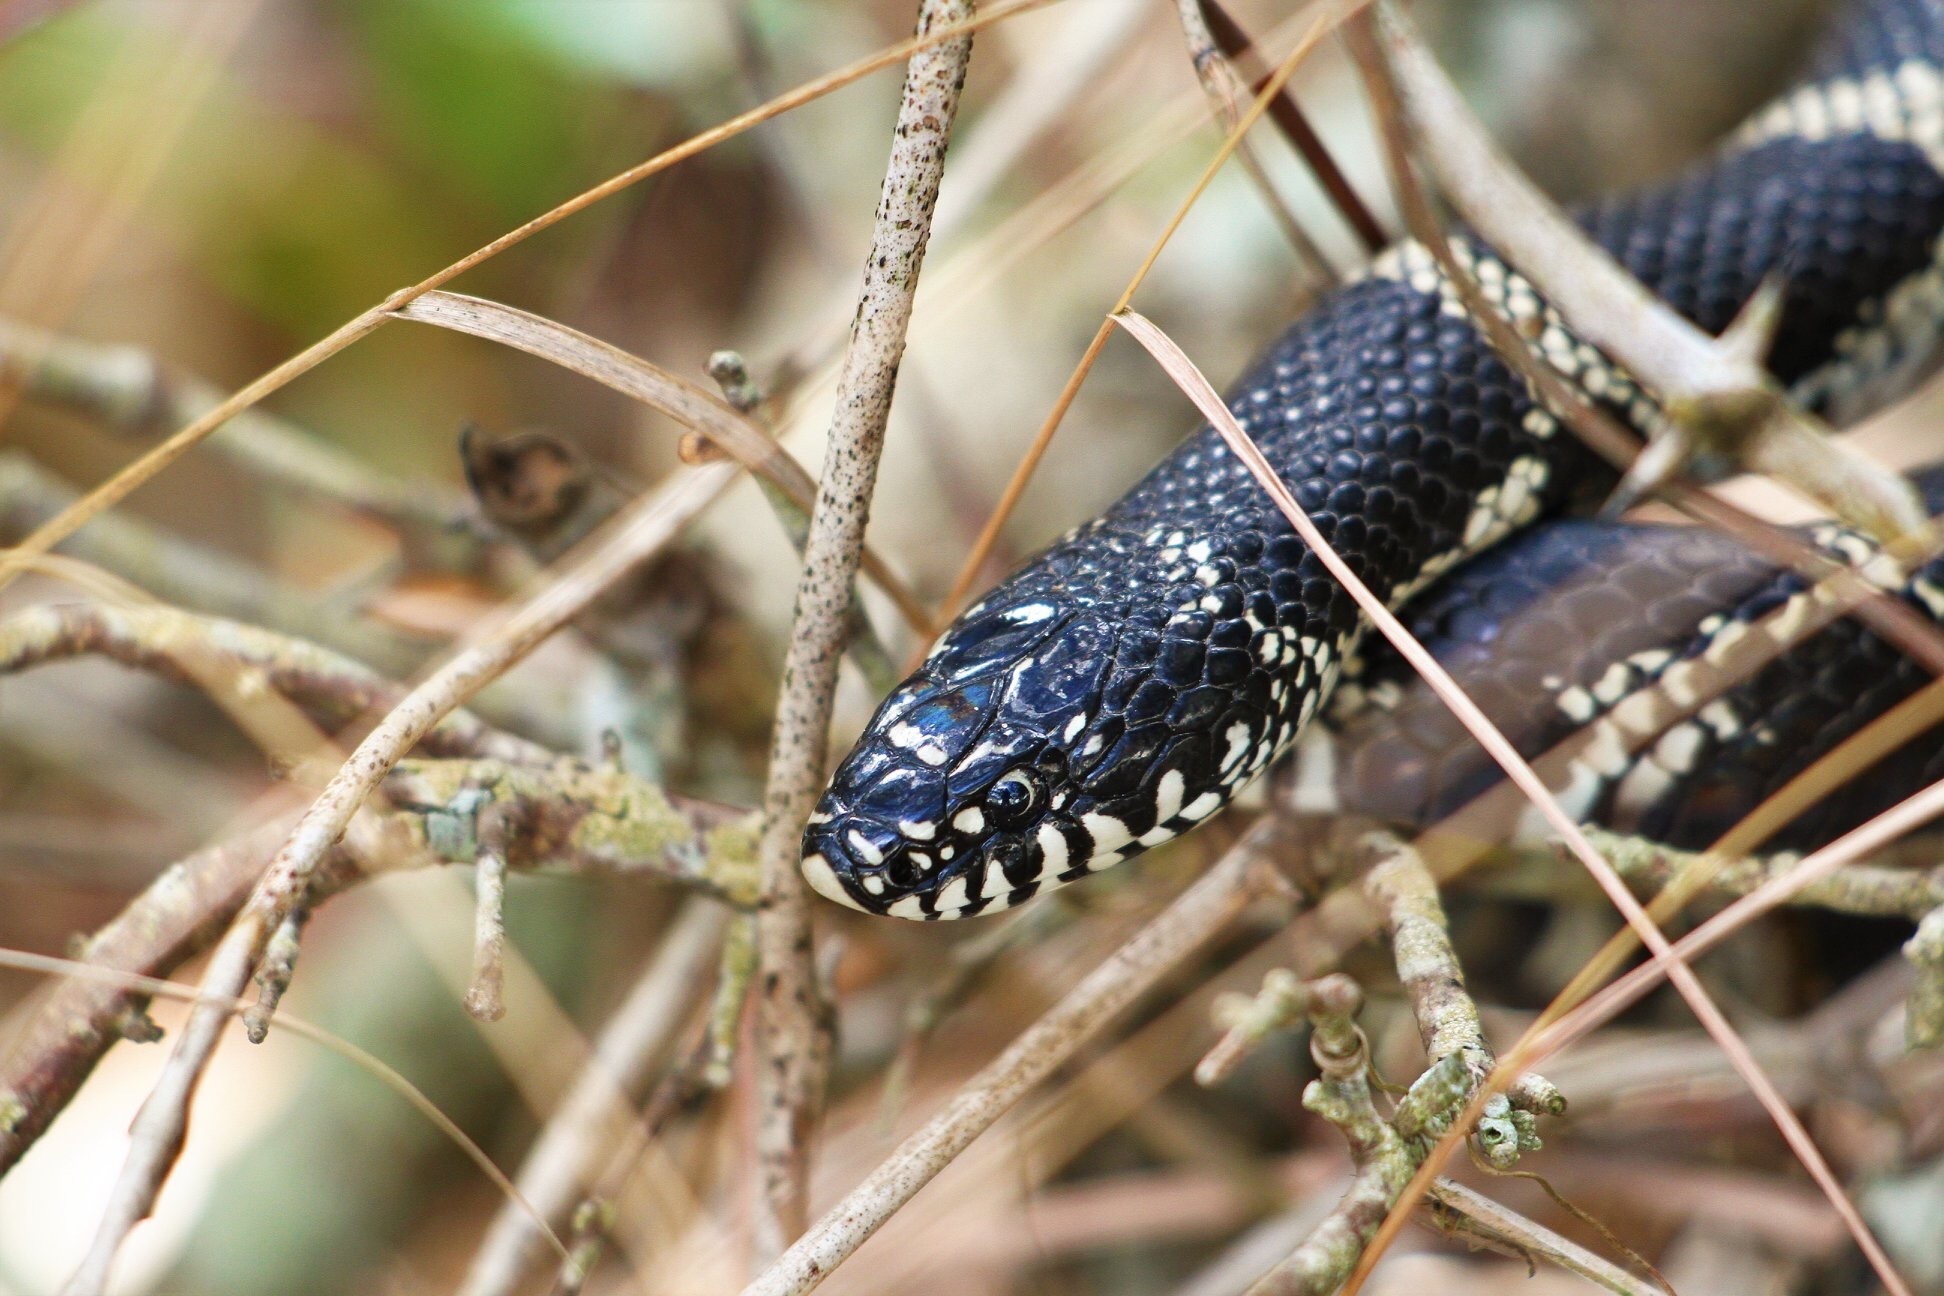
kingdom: Animalia
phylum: Chordata
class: Squamata
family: Colubridae
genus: Lampropeltis
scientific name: Lampropeltis getula
